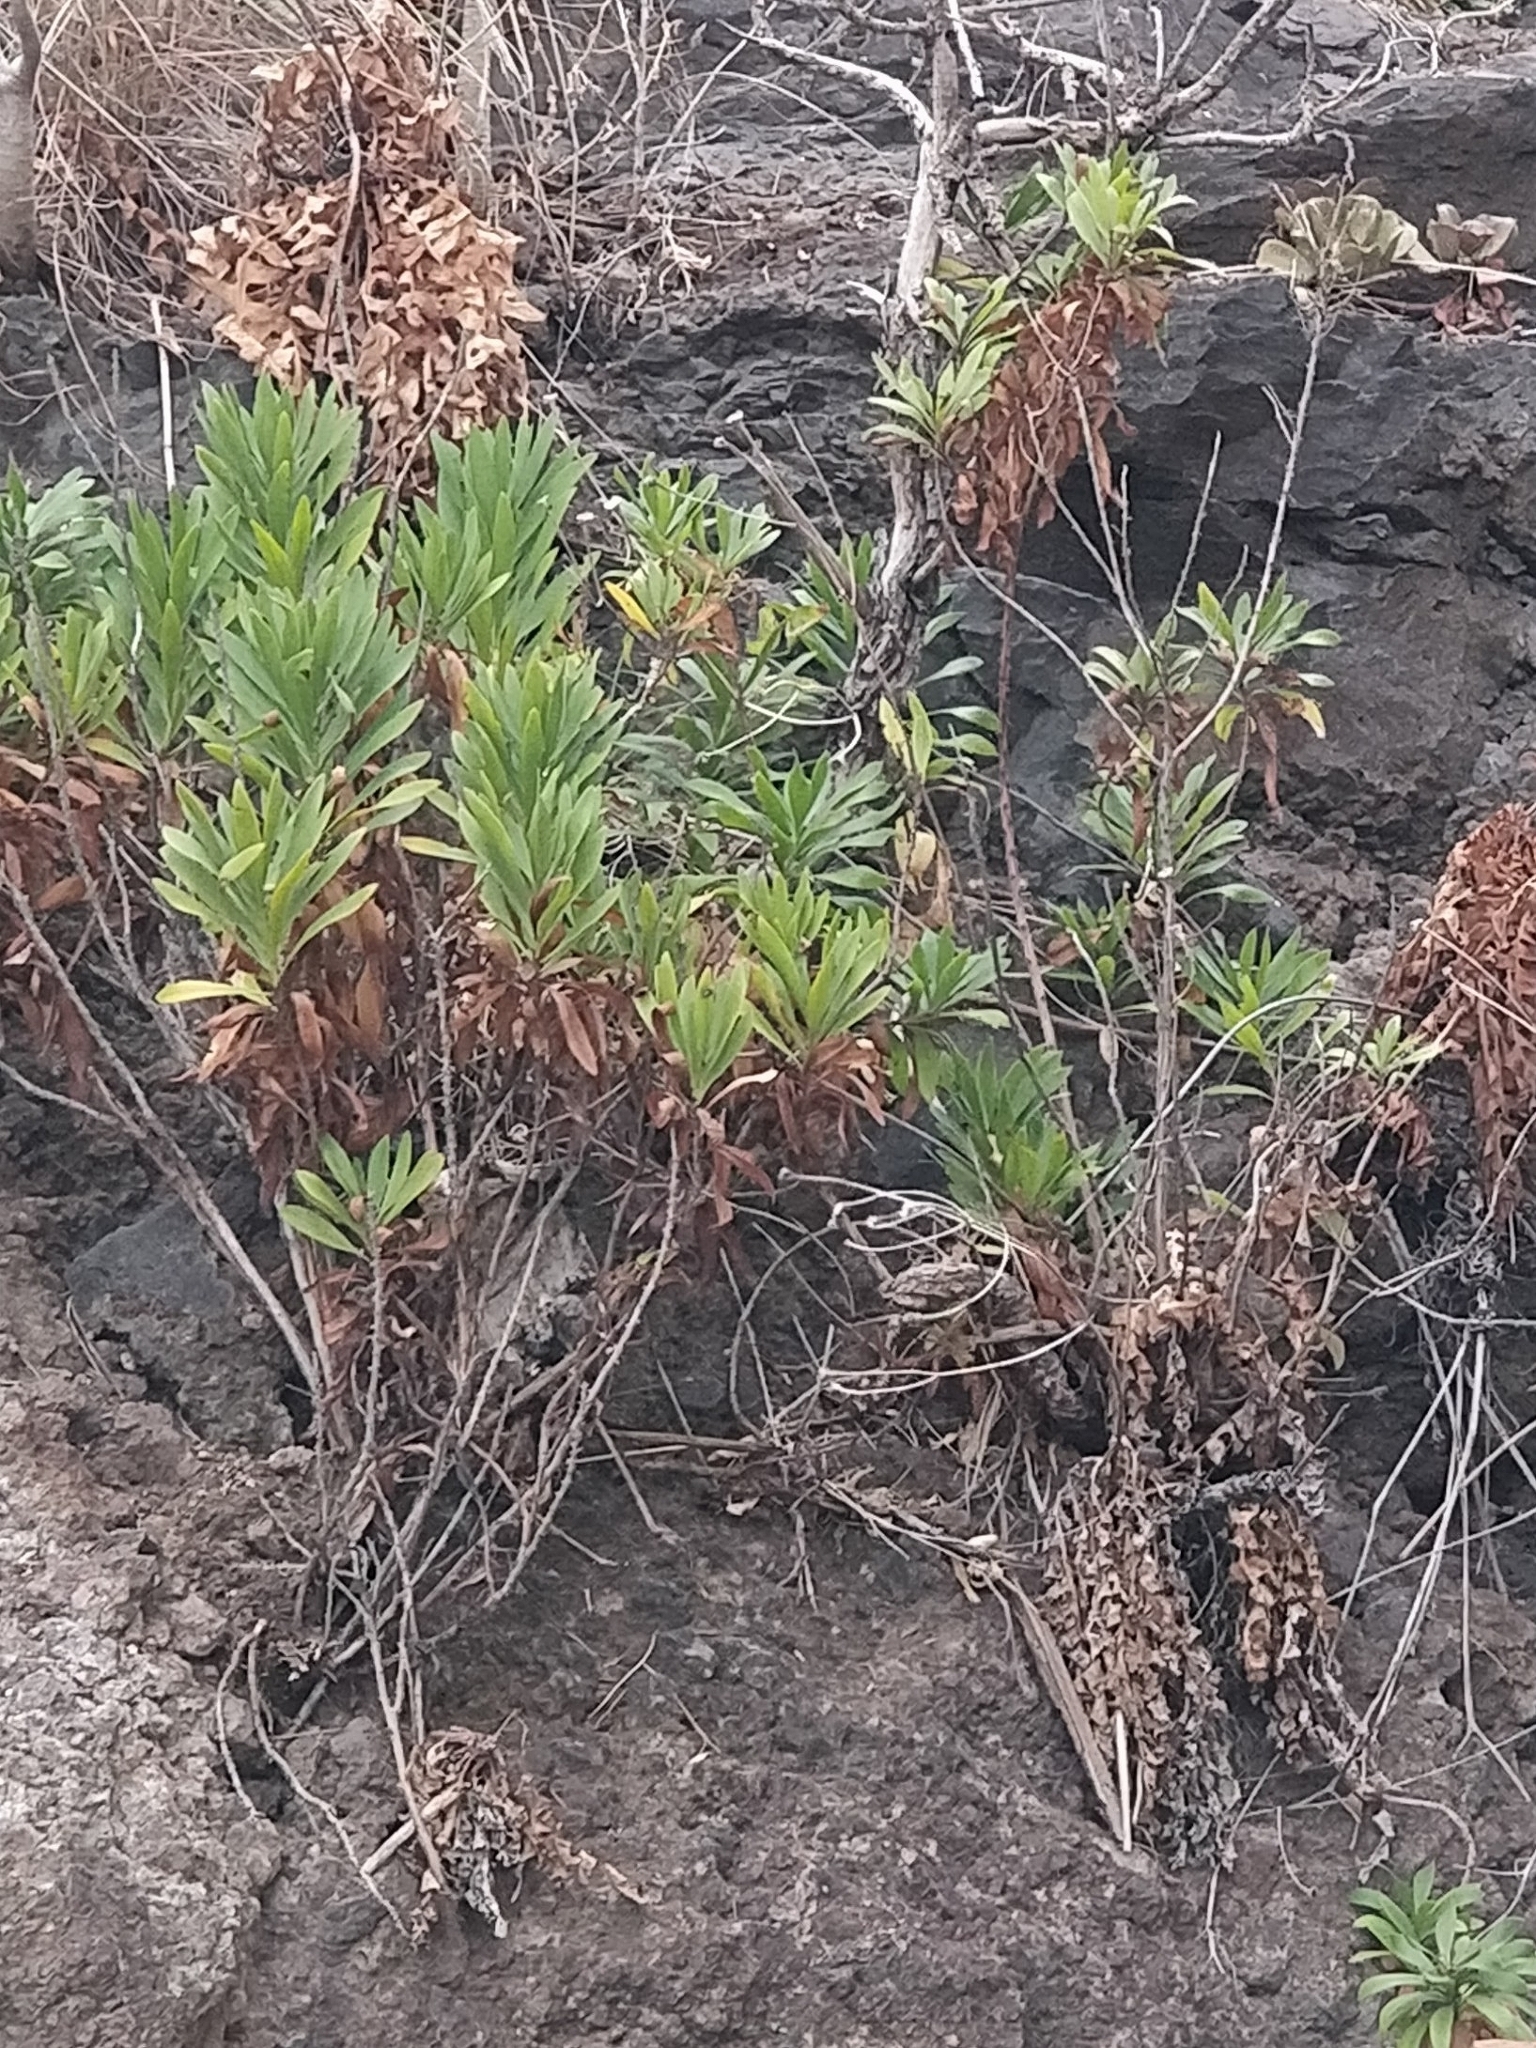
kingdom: Plantae
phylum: Tracheophyta
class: Magnoliopsida
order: Lamiales
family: Plantaginaceae
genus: Globularia
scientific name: Globularia salicina
